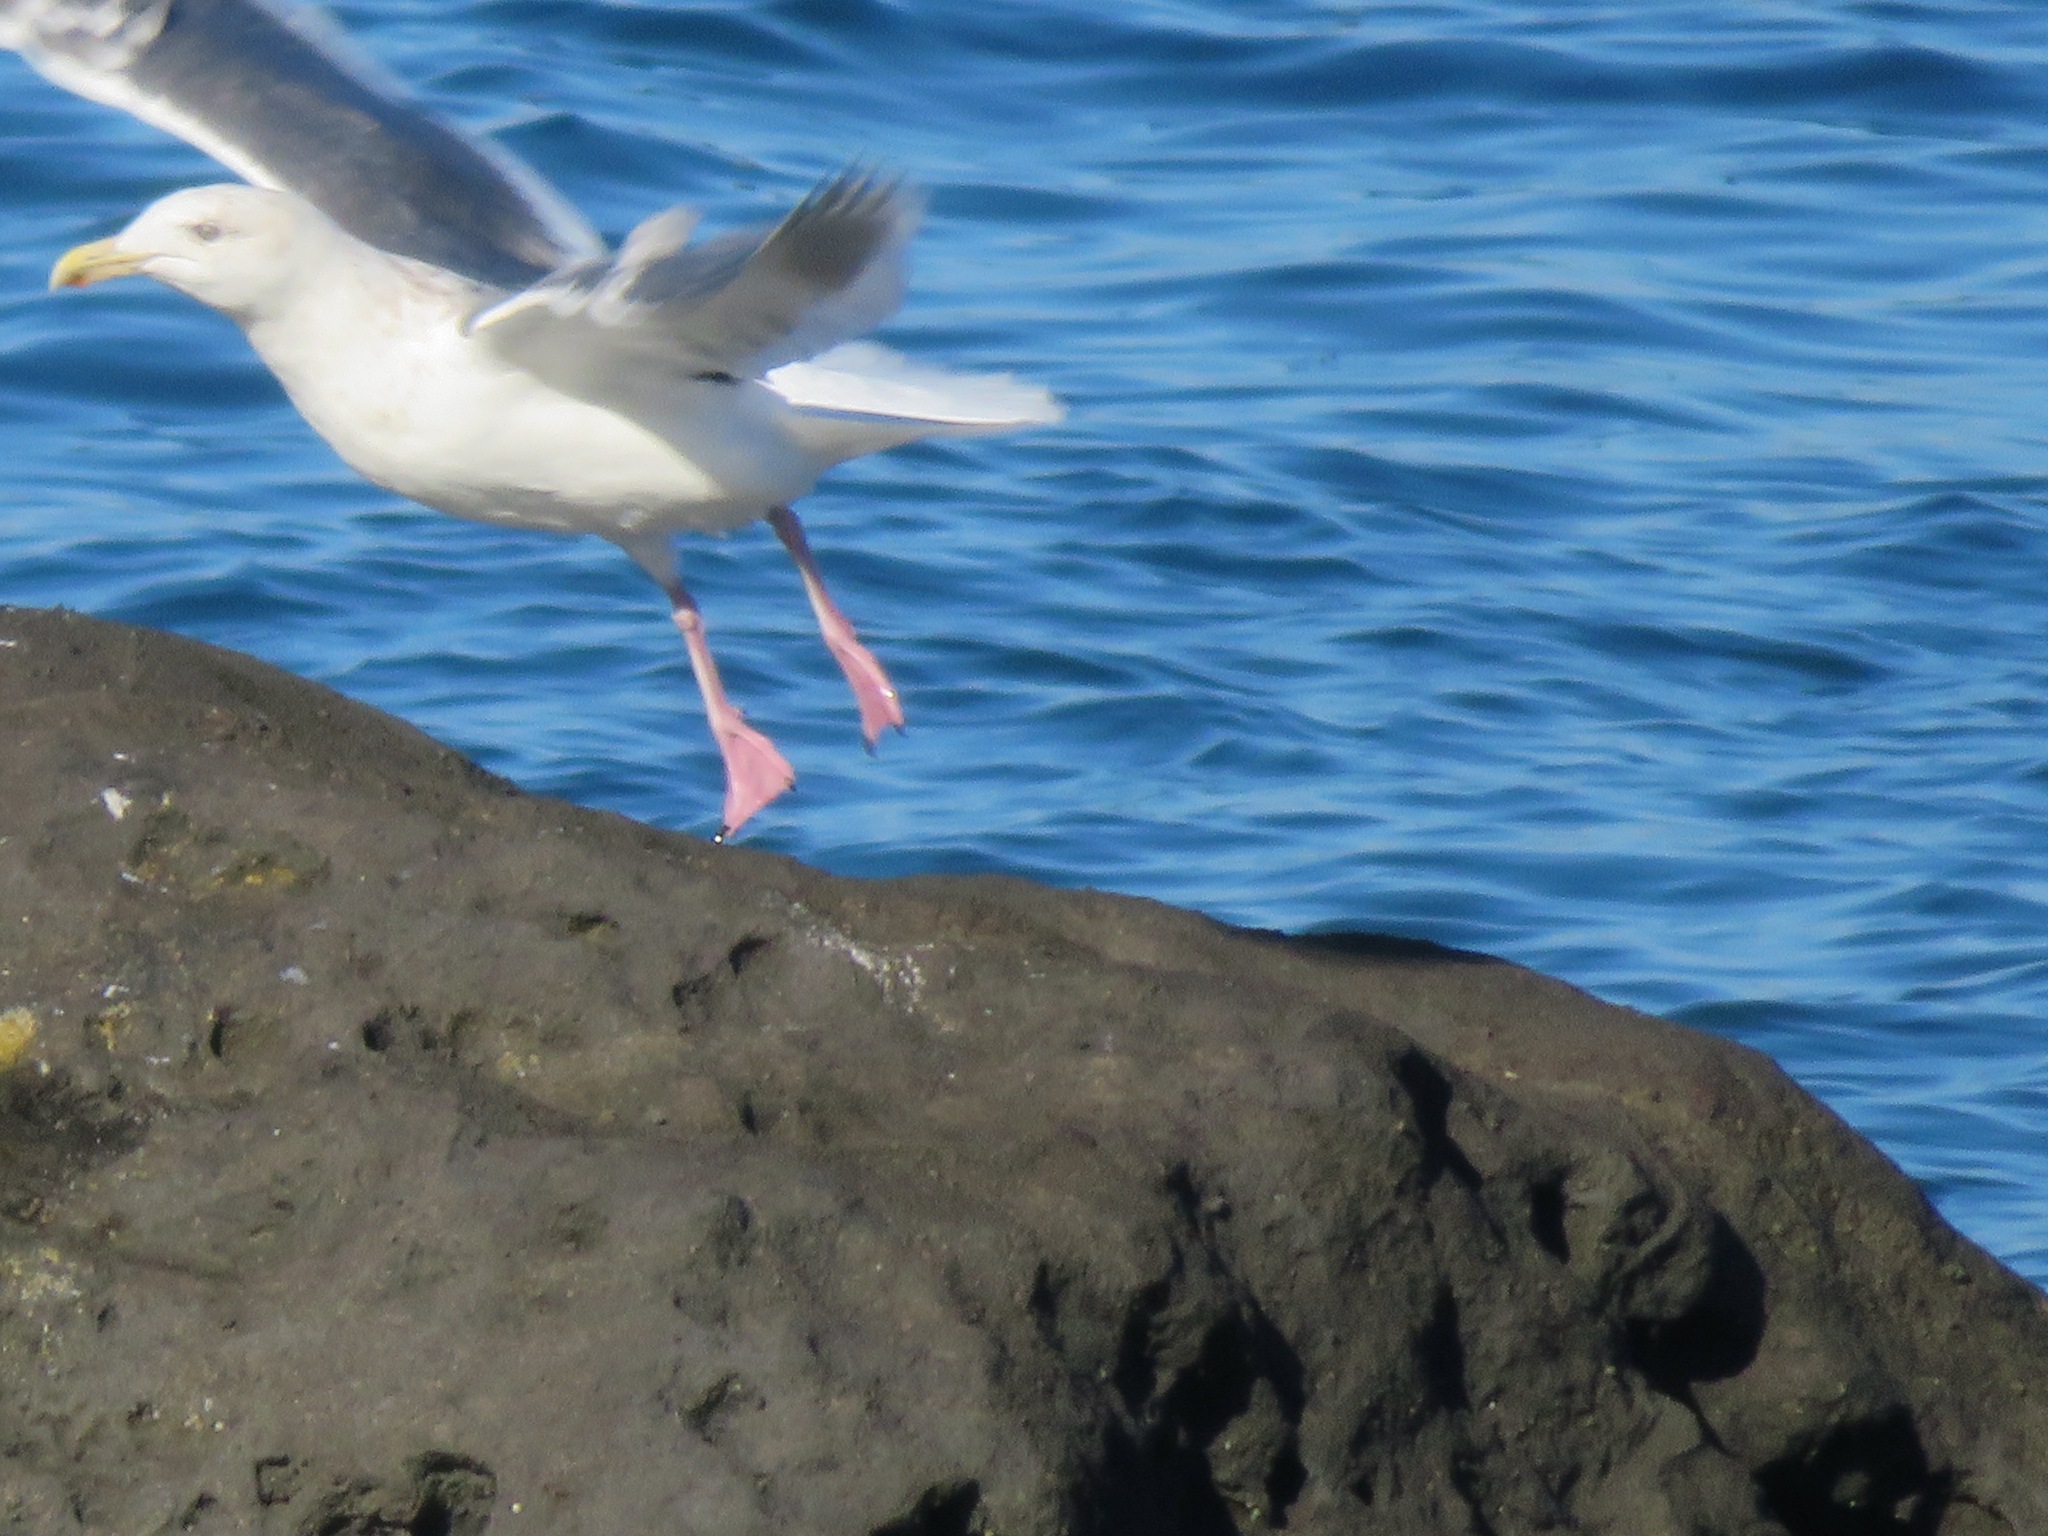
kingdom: Animalia
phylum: Chordata
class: Aves
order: Charadriiformes
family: Laridae
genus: Larus
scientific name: Larus schistisagus
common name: Slaty-backed gull
